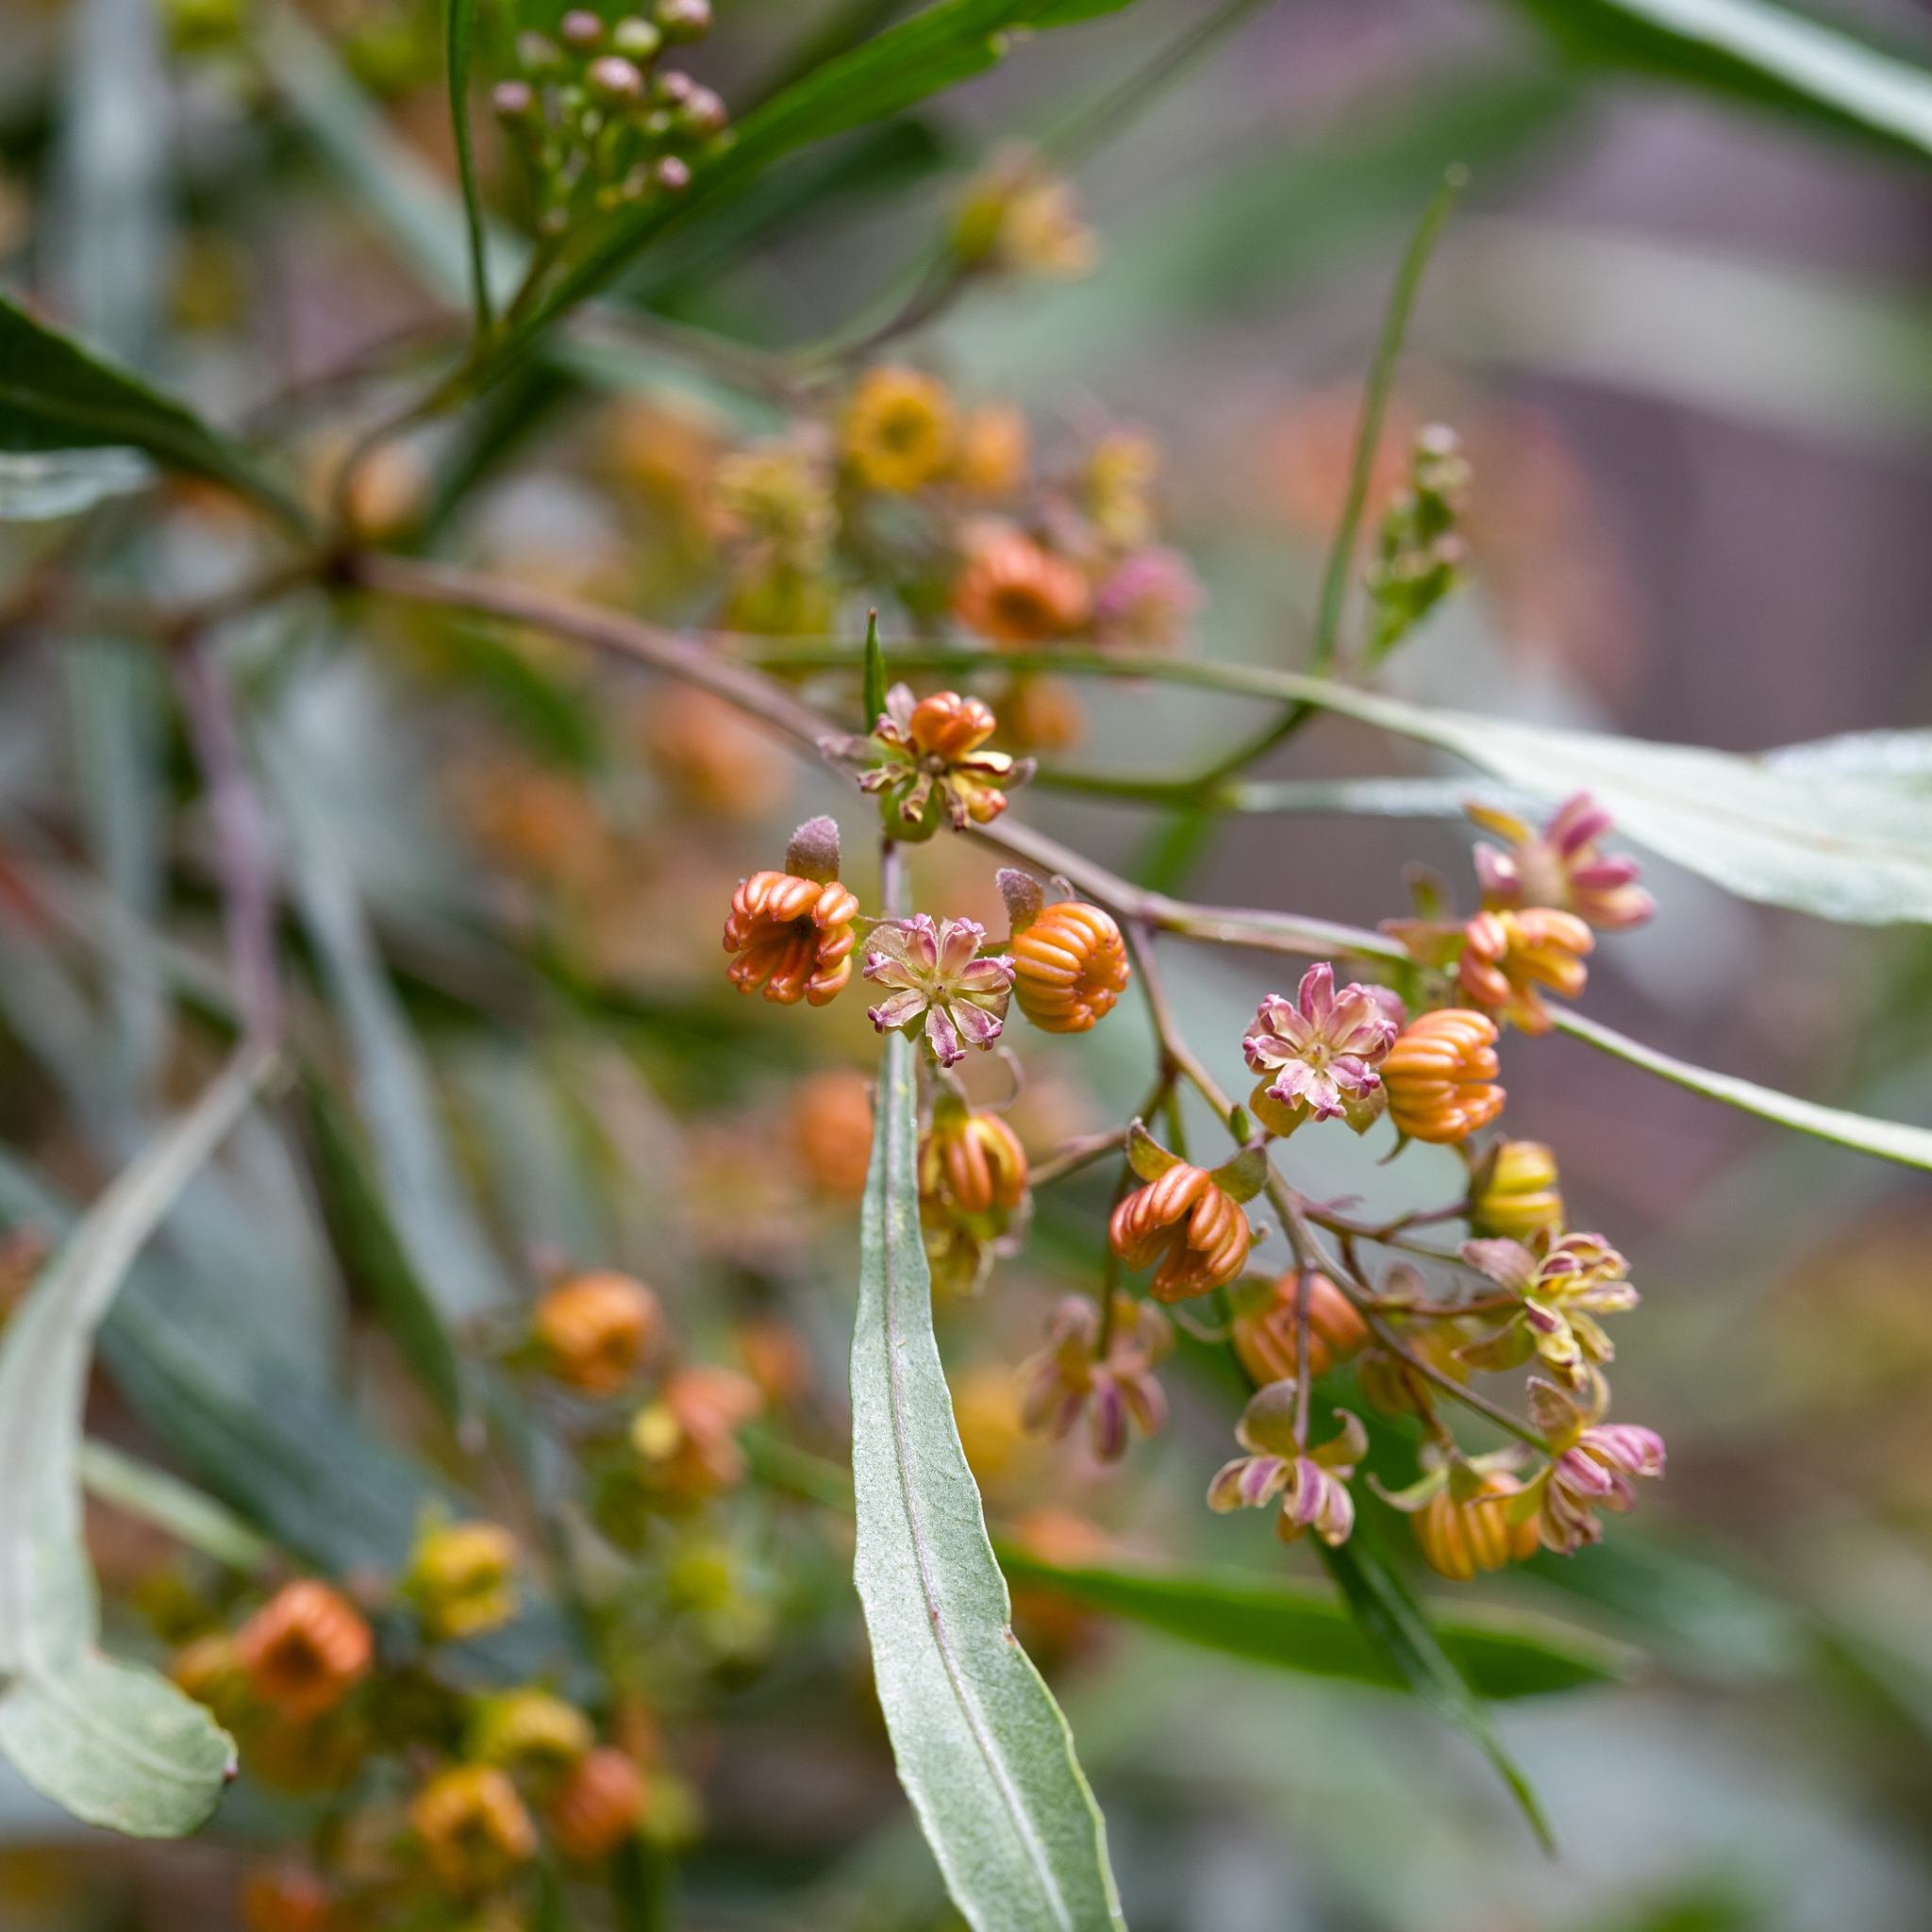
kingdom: Plantae
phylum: Tracheophyta
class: Magnoliopsida
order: Sapindales
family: Sapindaceae
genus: Dodonaea
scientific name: Dodonaea viscosa
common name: Hopbush
